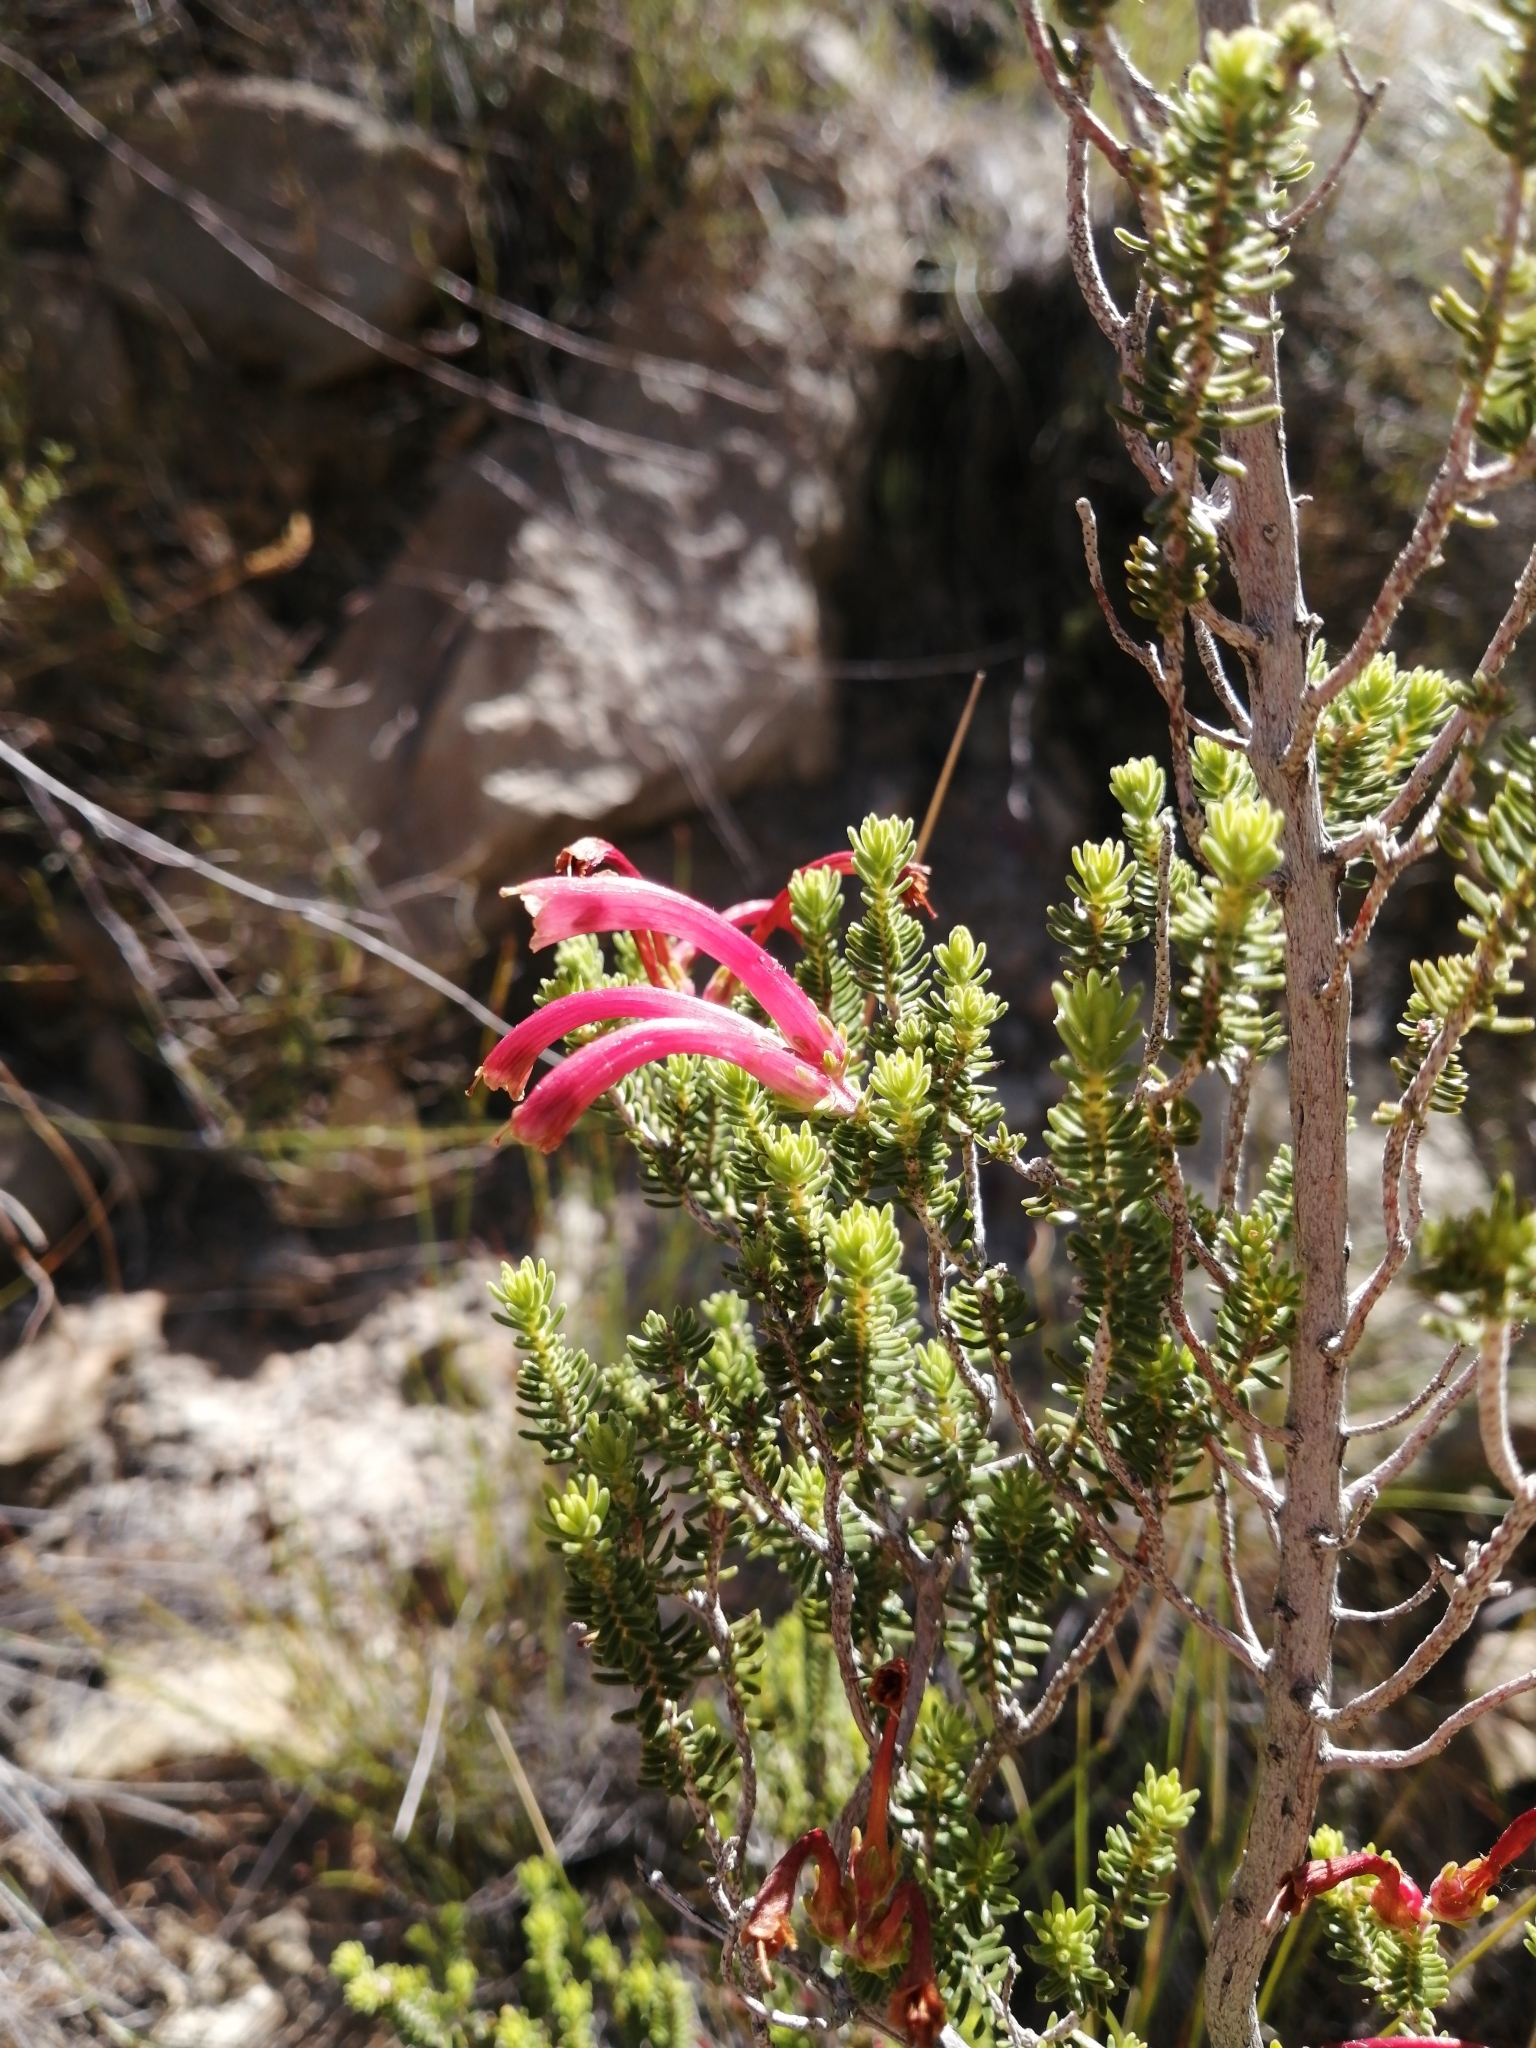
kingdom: Plantae
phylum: Tracheophyta
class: Magnoliopsida
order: Ericales
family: Ericaceae
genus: Erica
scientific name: Erica discolor
